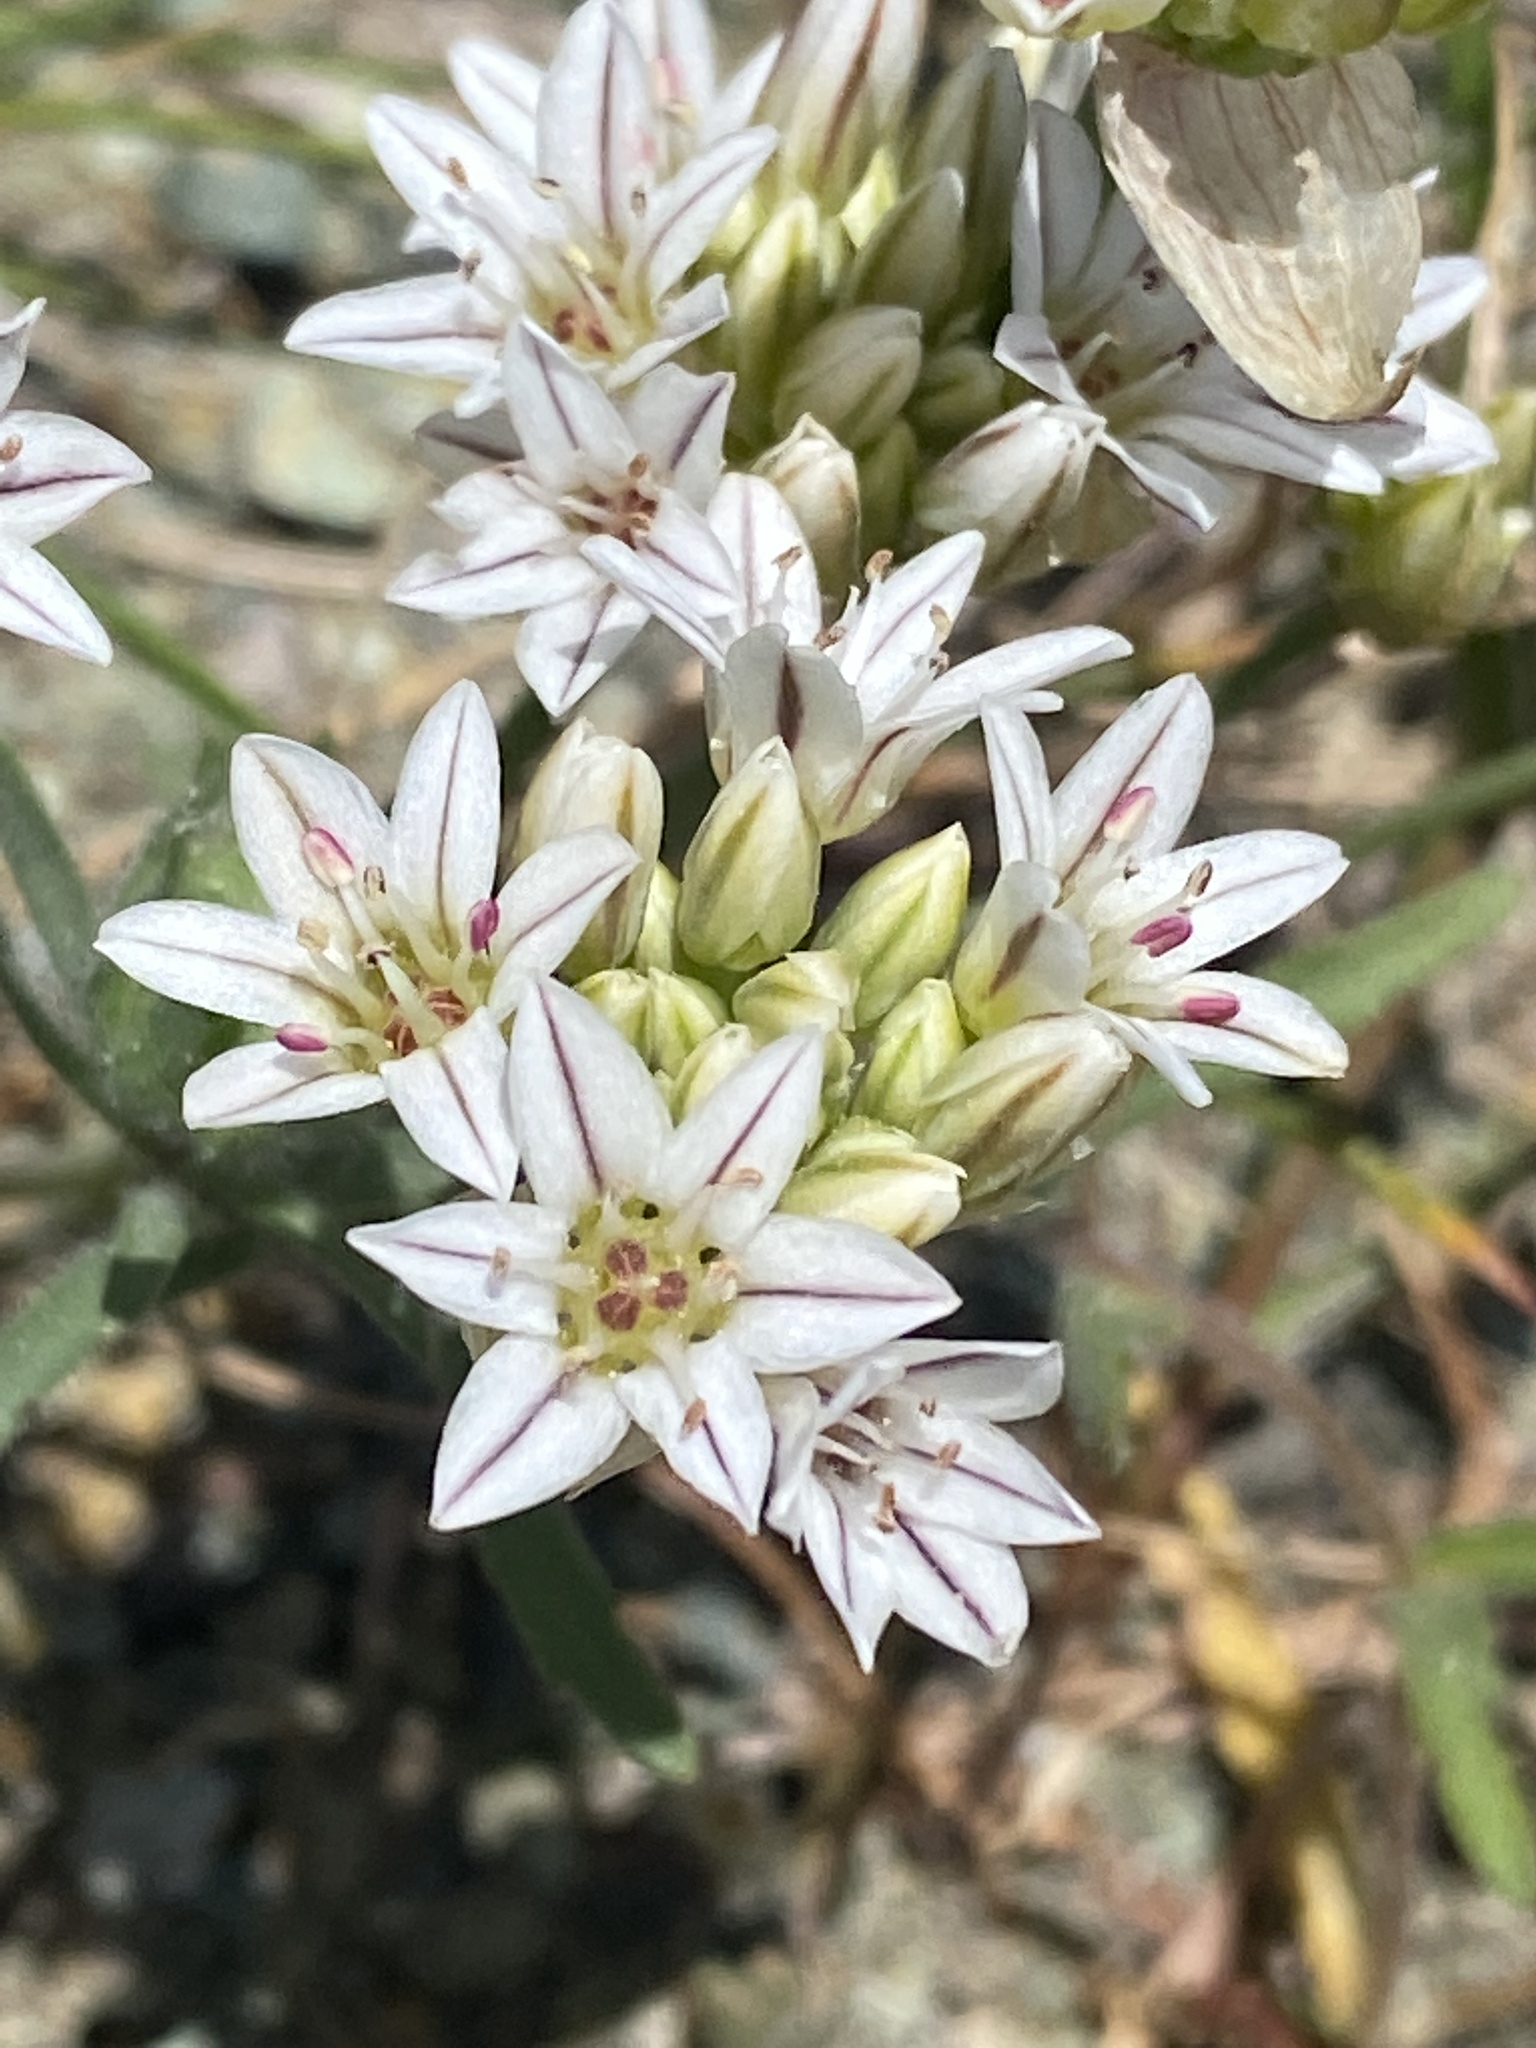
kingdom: Plantae
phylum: Tracheophyta
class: Liliopsida
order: Asparagales
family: Amaryllidaceae
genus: Allium
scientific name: Allium lacunosum
